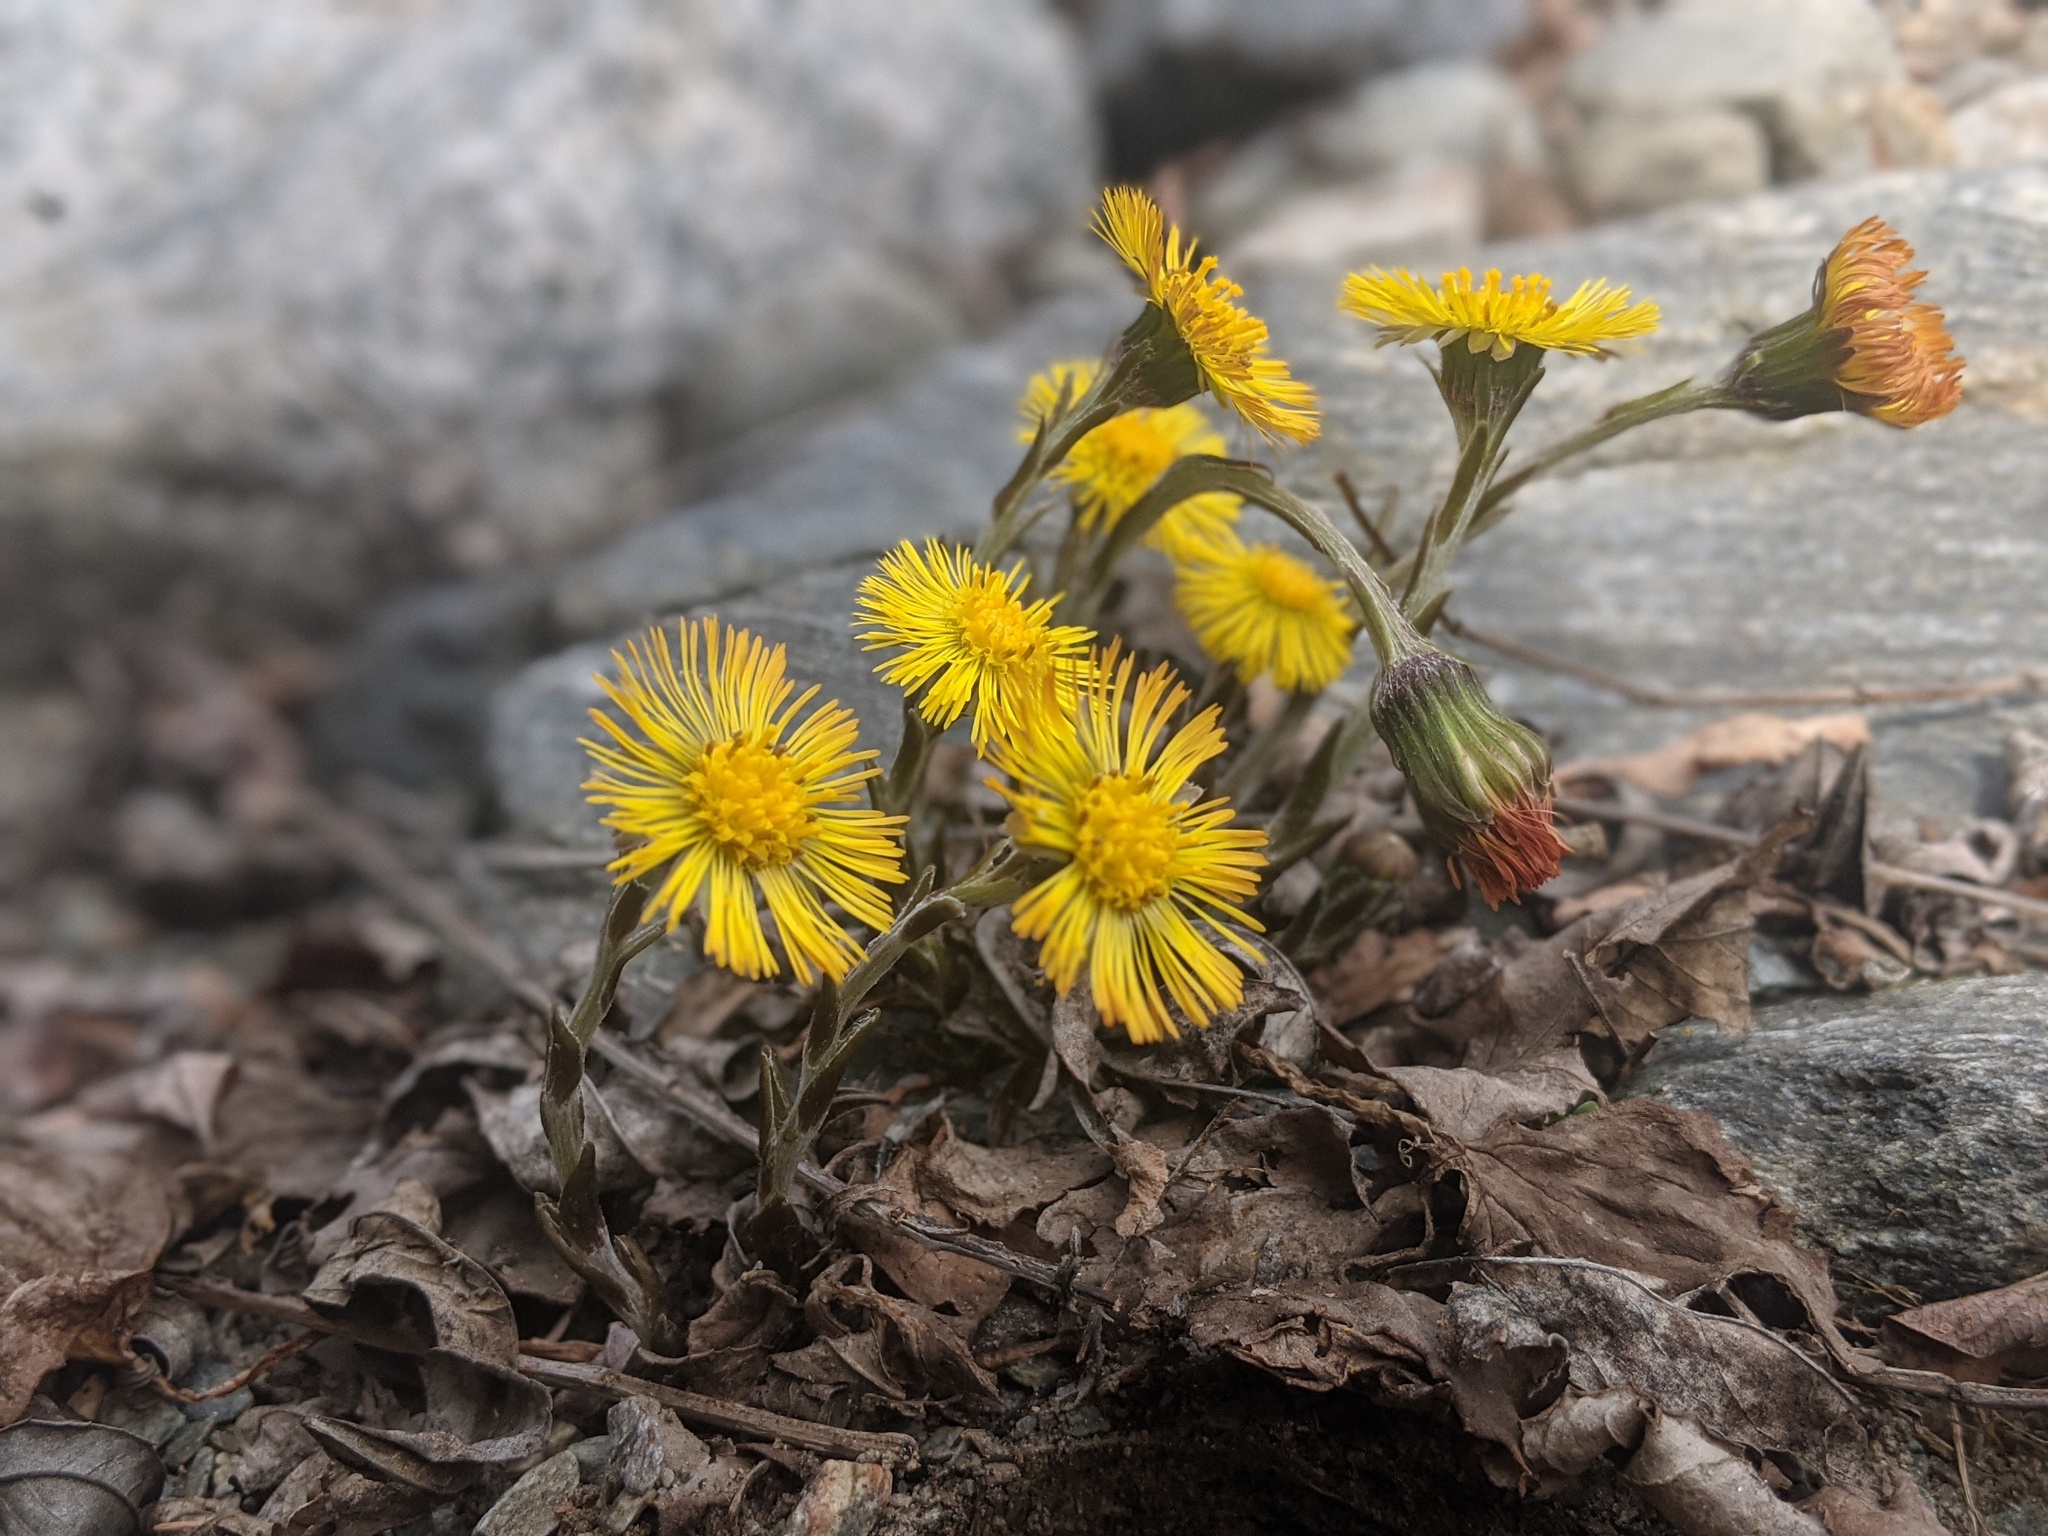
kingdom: Plantae
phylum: Tracheophyta
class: Magnoliopsida
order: Asterales
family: Asteraceae
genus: Tussilago
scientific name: Tussilago farfara
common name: Coltsfoot
